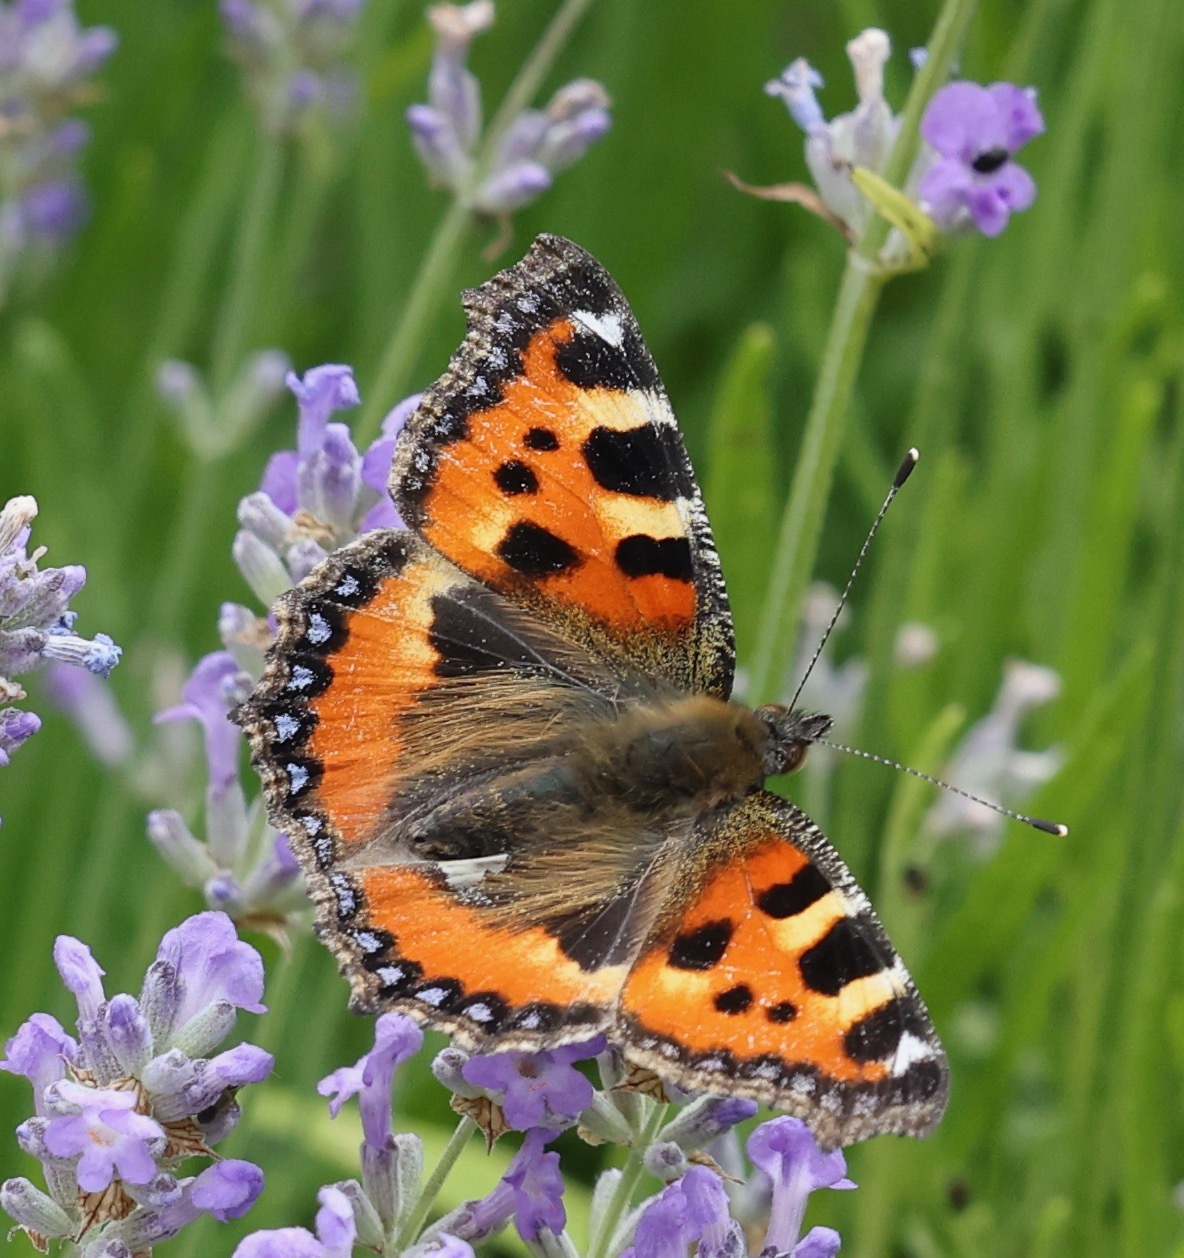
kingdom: Animalia
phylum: Arthropoda
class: Insecta
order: Lepidoptera
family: Nymphalidae
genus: Aglais
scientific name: Aglais urticae
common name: Small tortoiseshell
